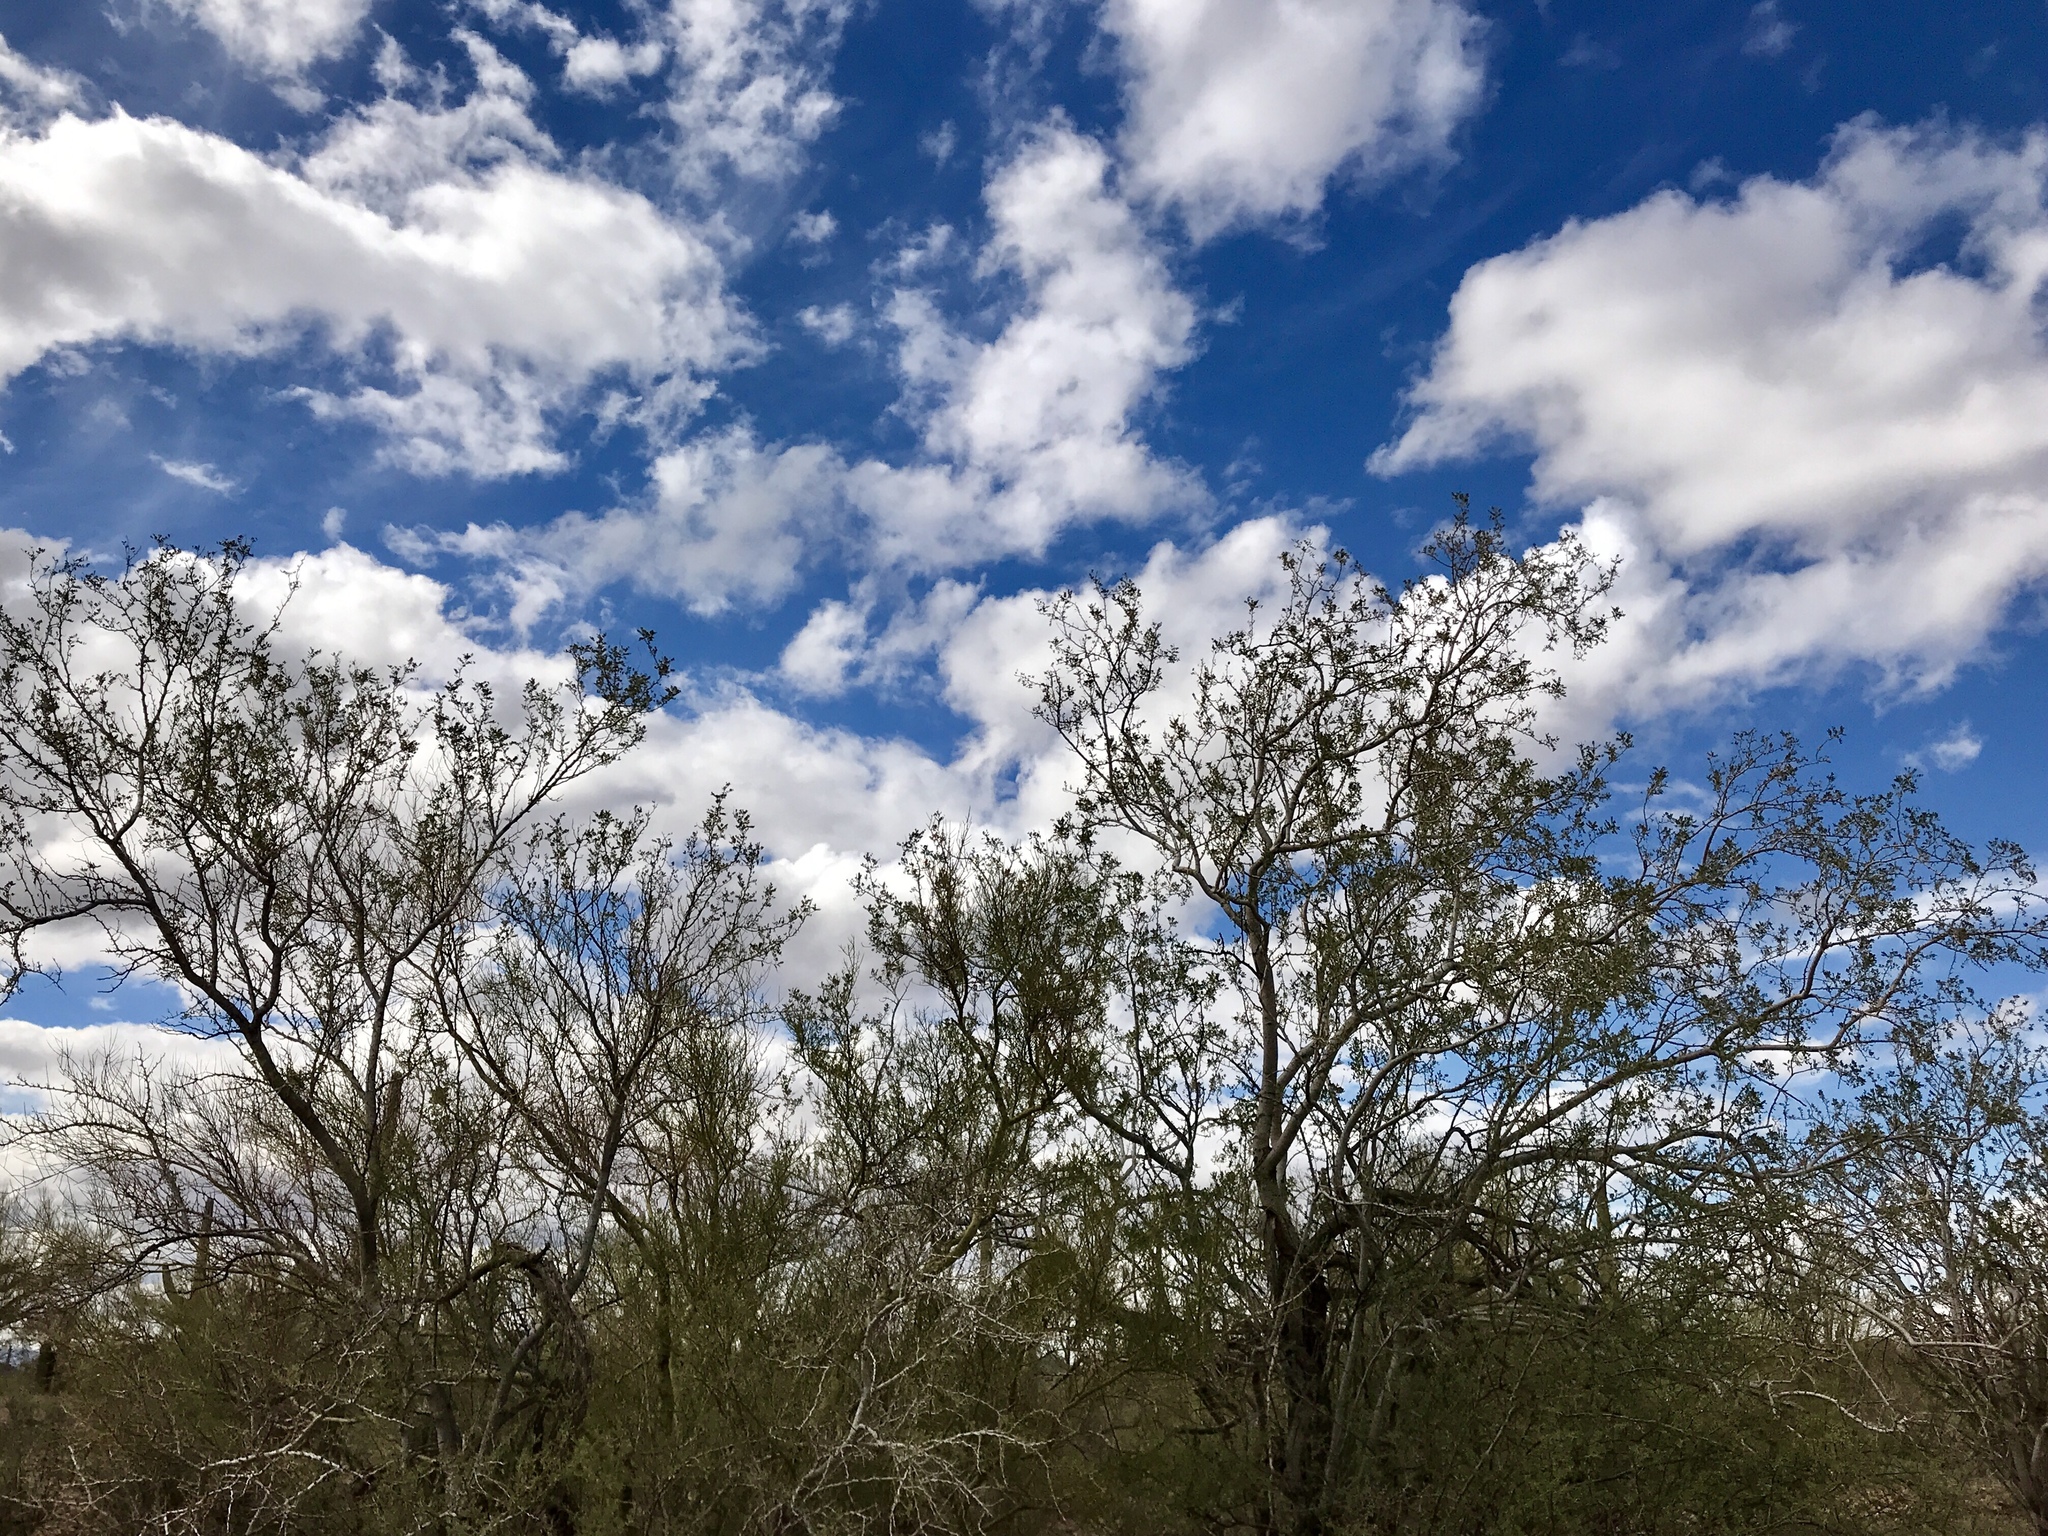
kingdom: Plantae
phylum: Tracheophyta
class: Magnoliopsida
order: Fabales
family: Fabaceae
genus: Olneya
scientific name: Olneya tesota
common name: Desert ironwood
